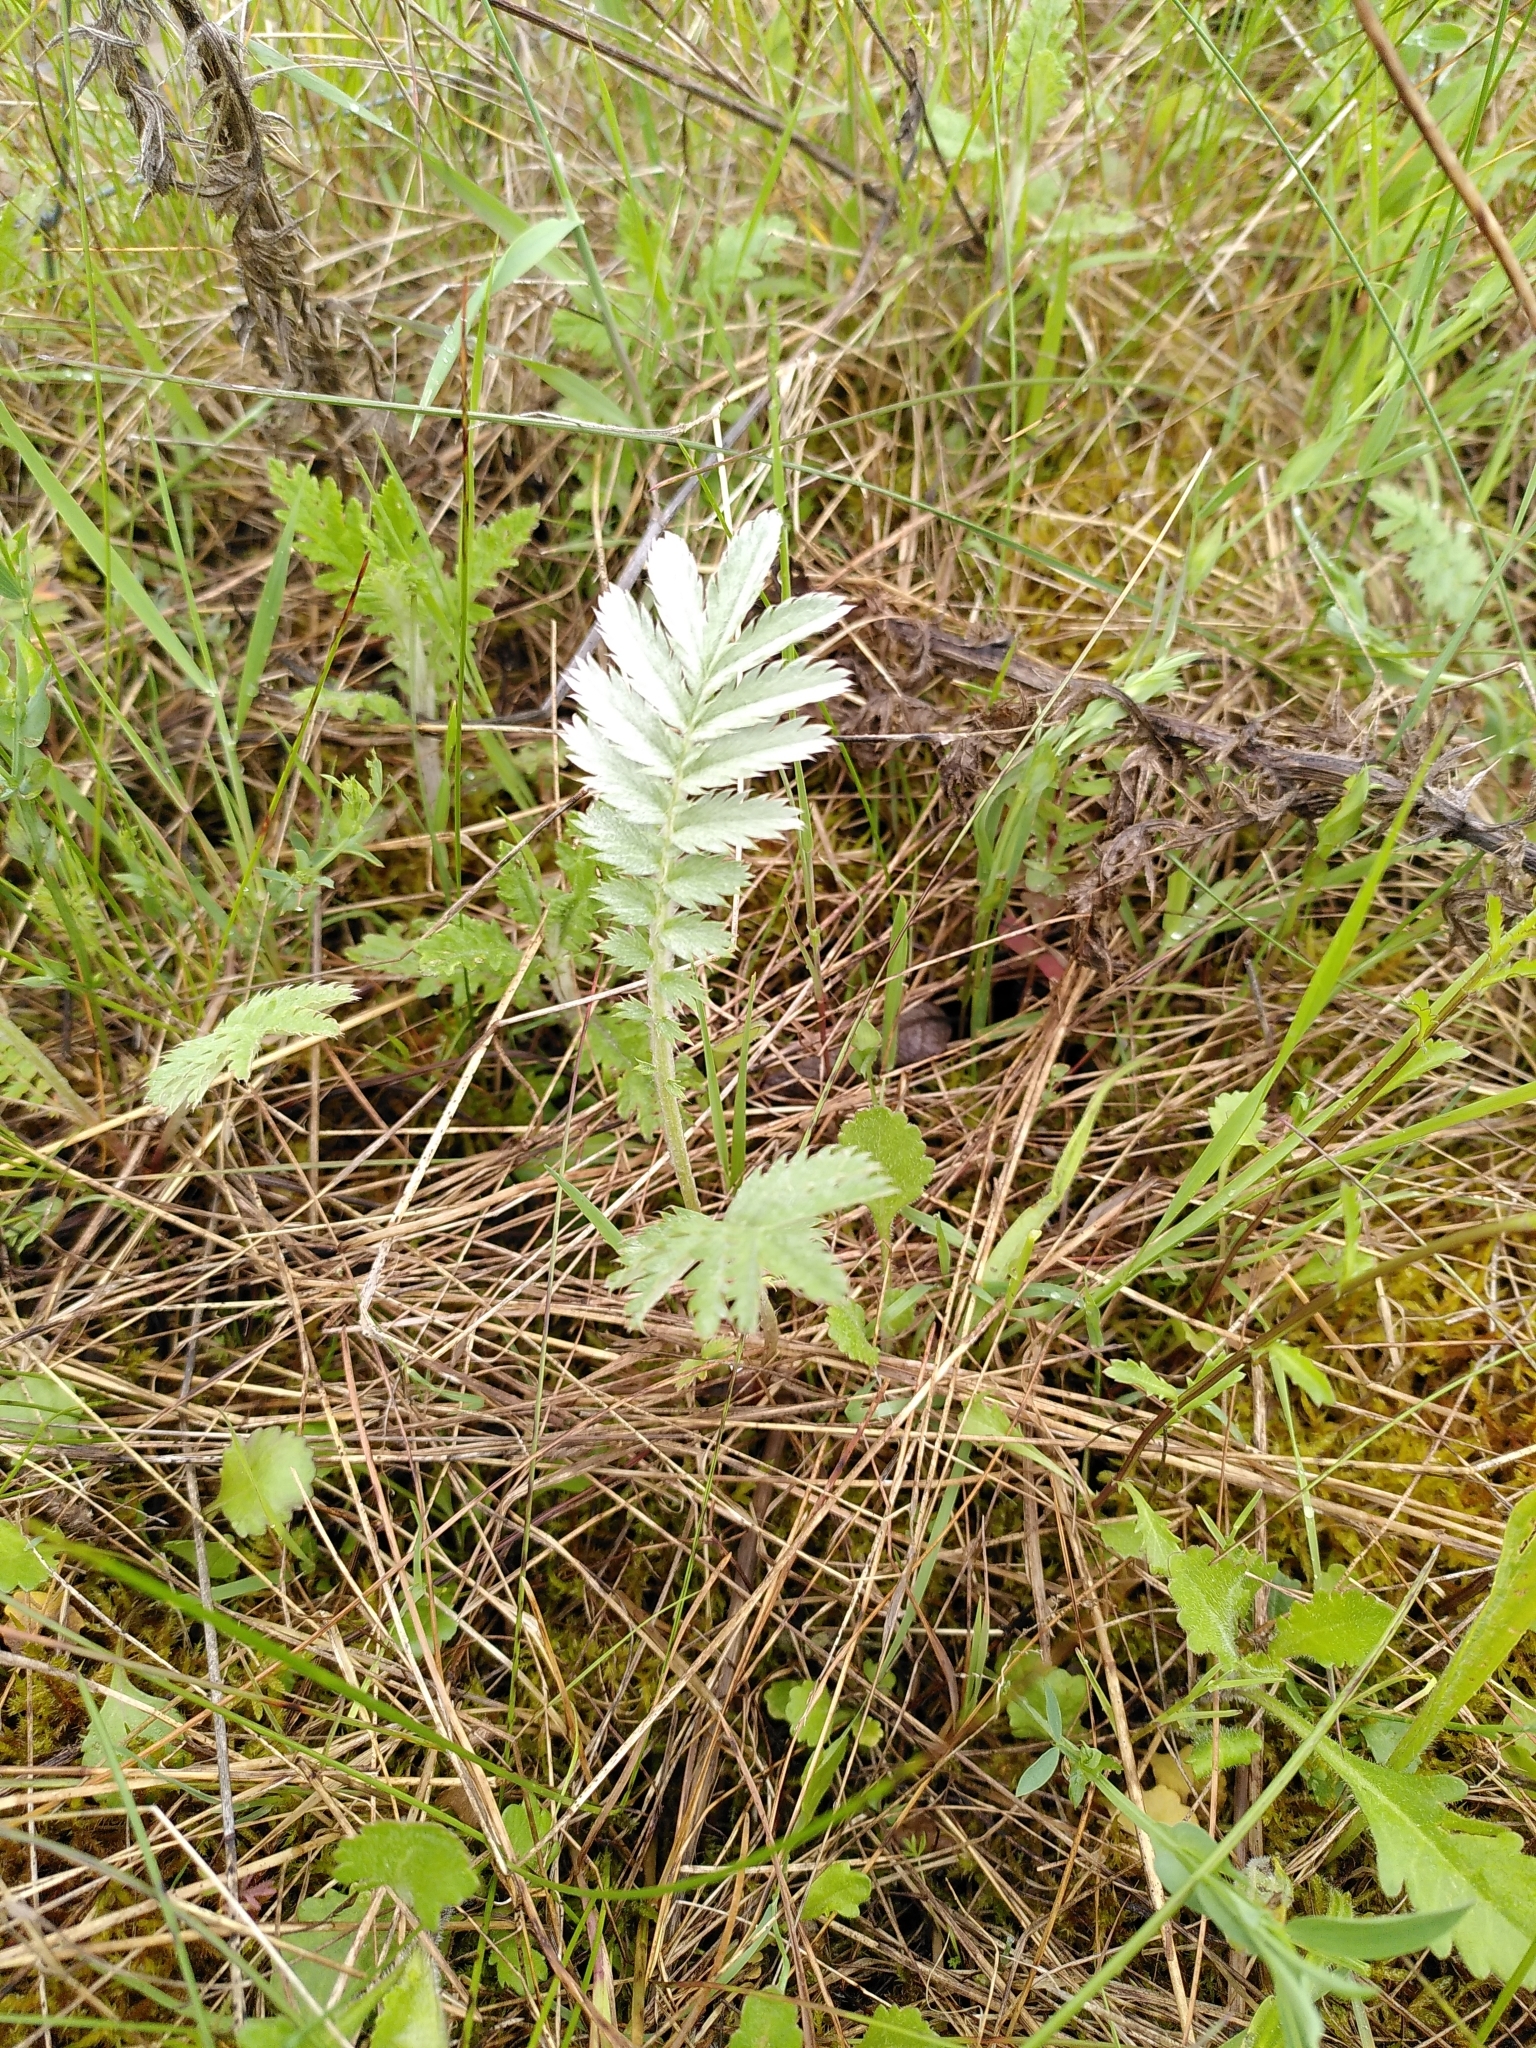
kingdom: Plantae
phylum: Tracheophyta
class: Magnoliopsida
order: Rosales
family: Rosaceae
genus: Argentina
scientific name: Argentina anserina
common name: Common silverweed
